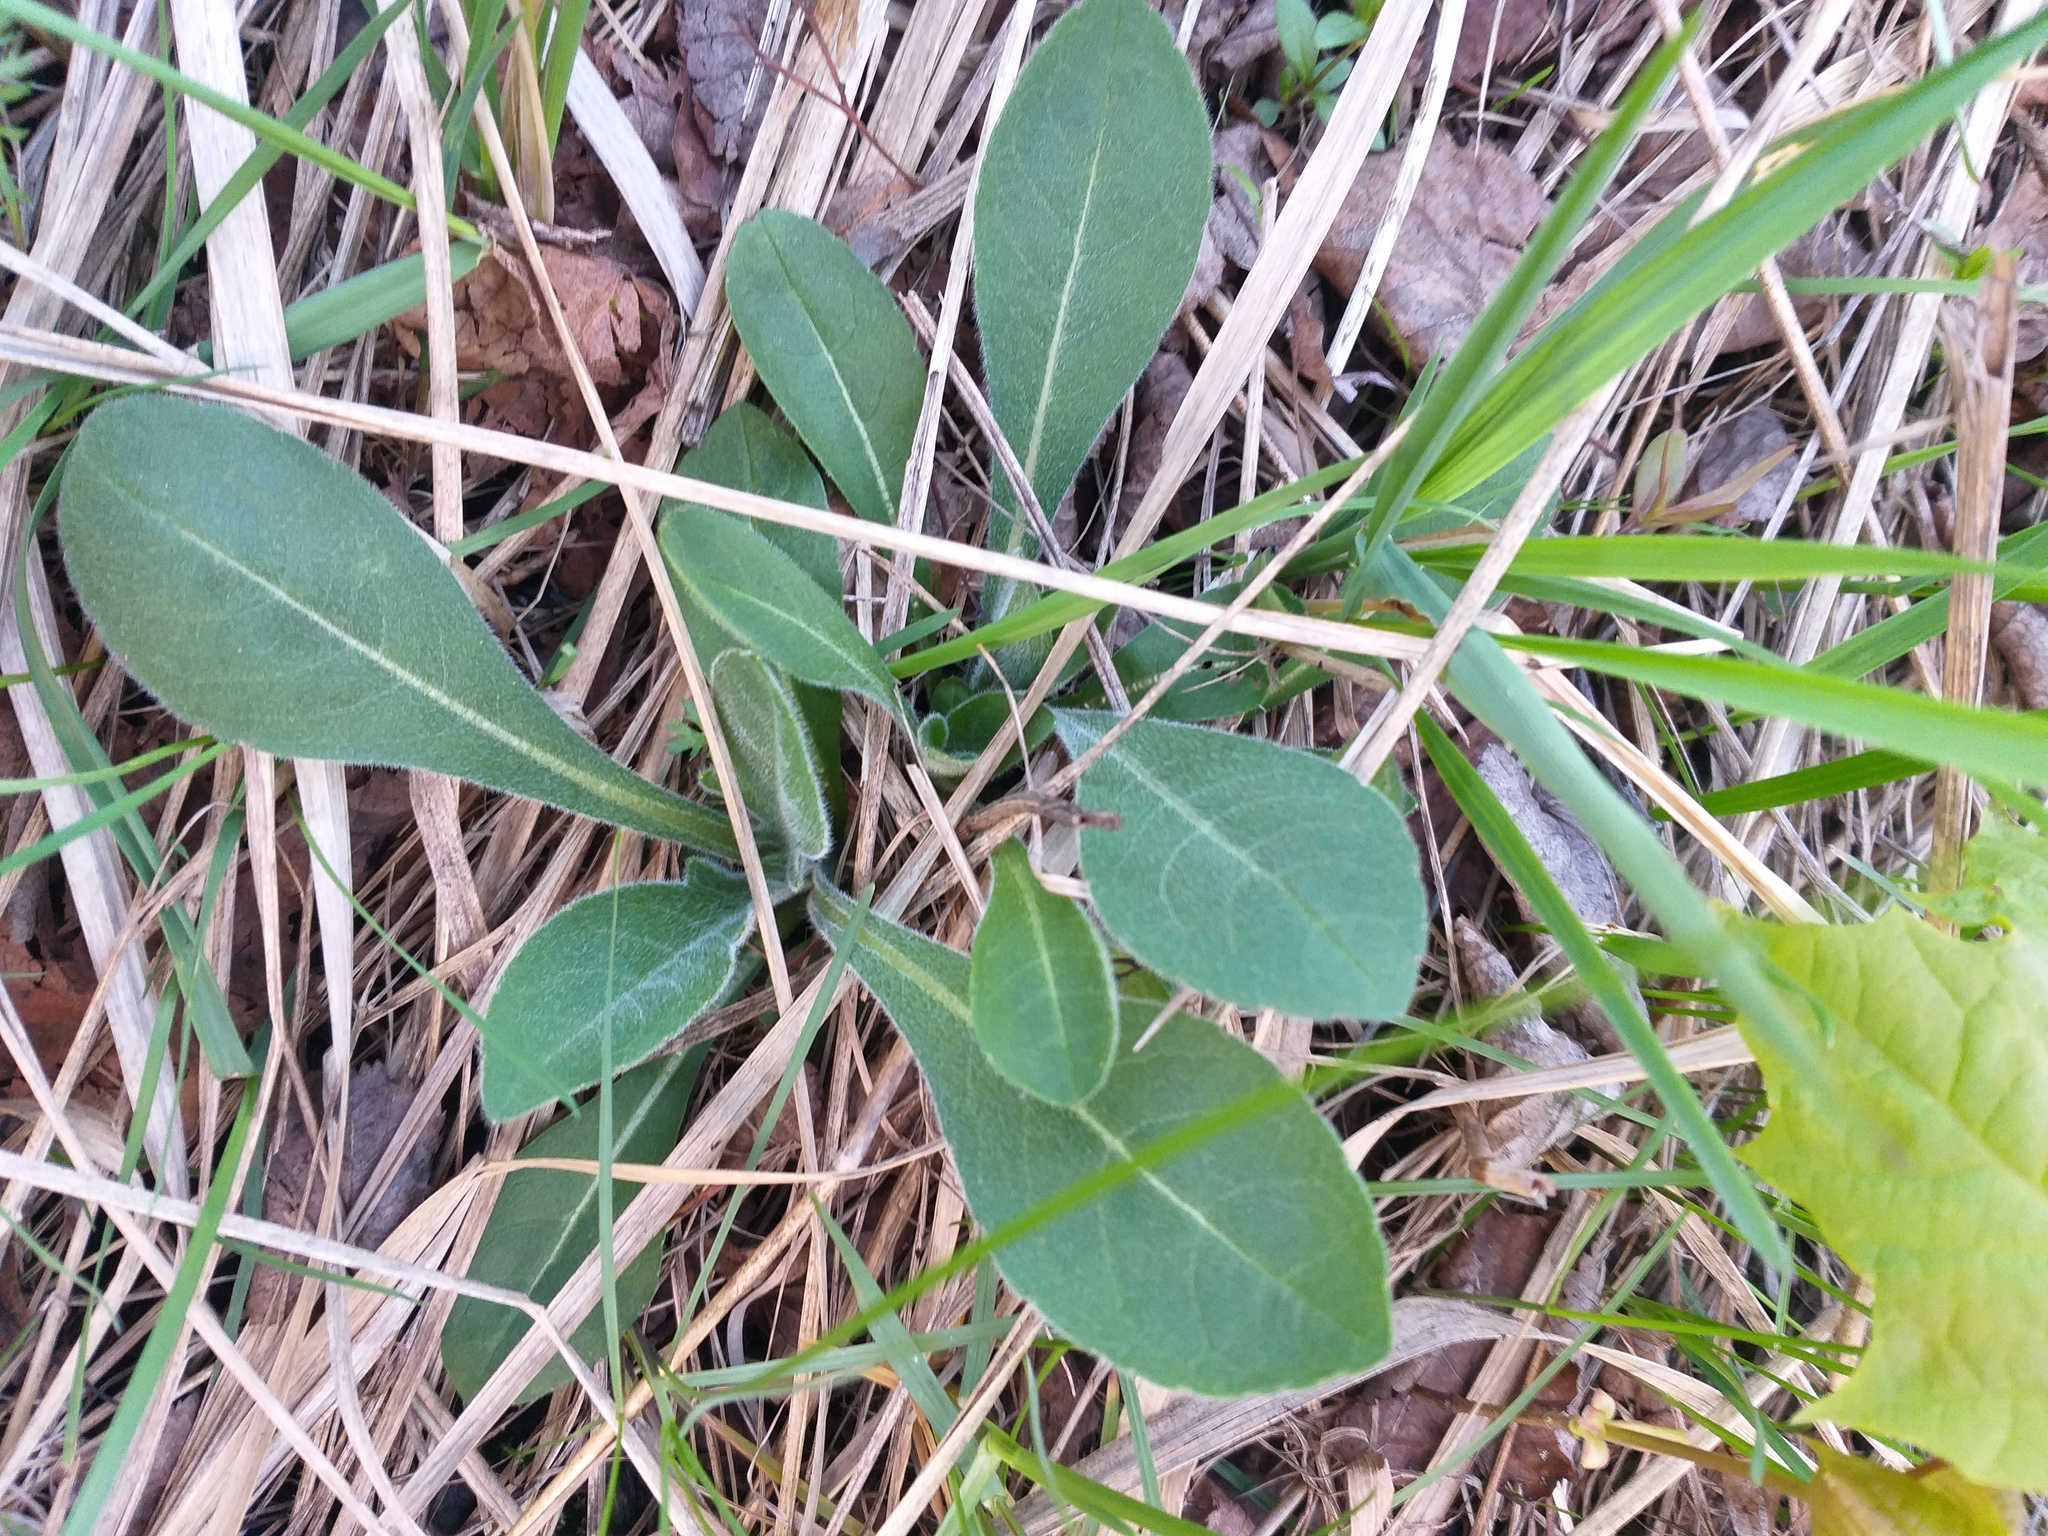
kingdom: Plantae
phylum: Tracheophyta
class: Magnoliopsida
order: Dipsacales
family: Caprifoliaceae
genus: Knautia
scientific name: Knautia arvensis
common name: Field scabiosa
